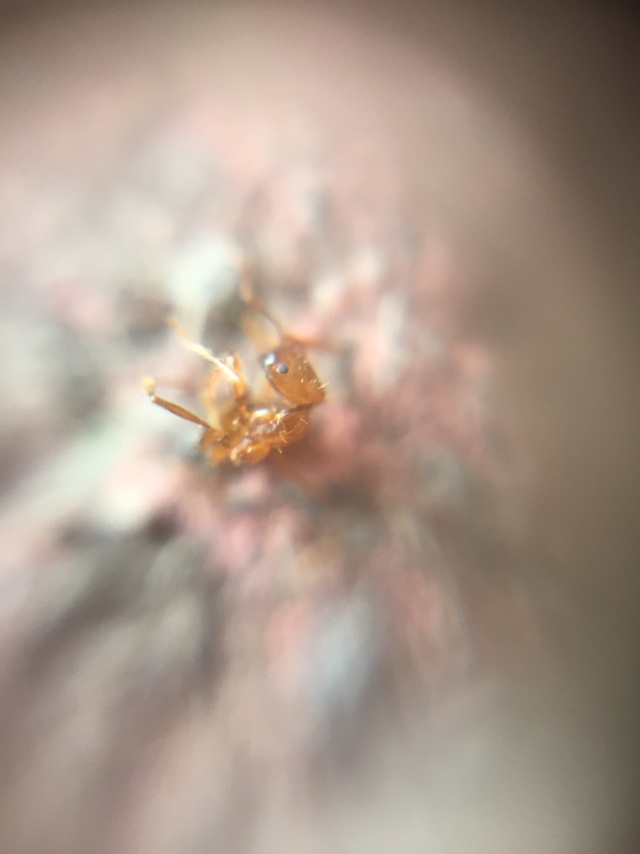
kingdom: Animalia
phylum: Arthropoda
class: Insecta
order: Hymenoptera
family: Formicidae
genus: Solenopsis
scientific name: Solenopsis geminata
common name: Tropical fire ant
